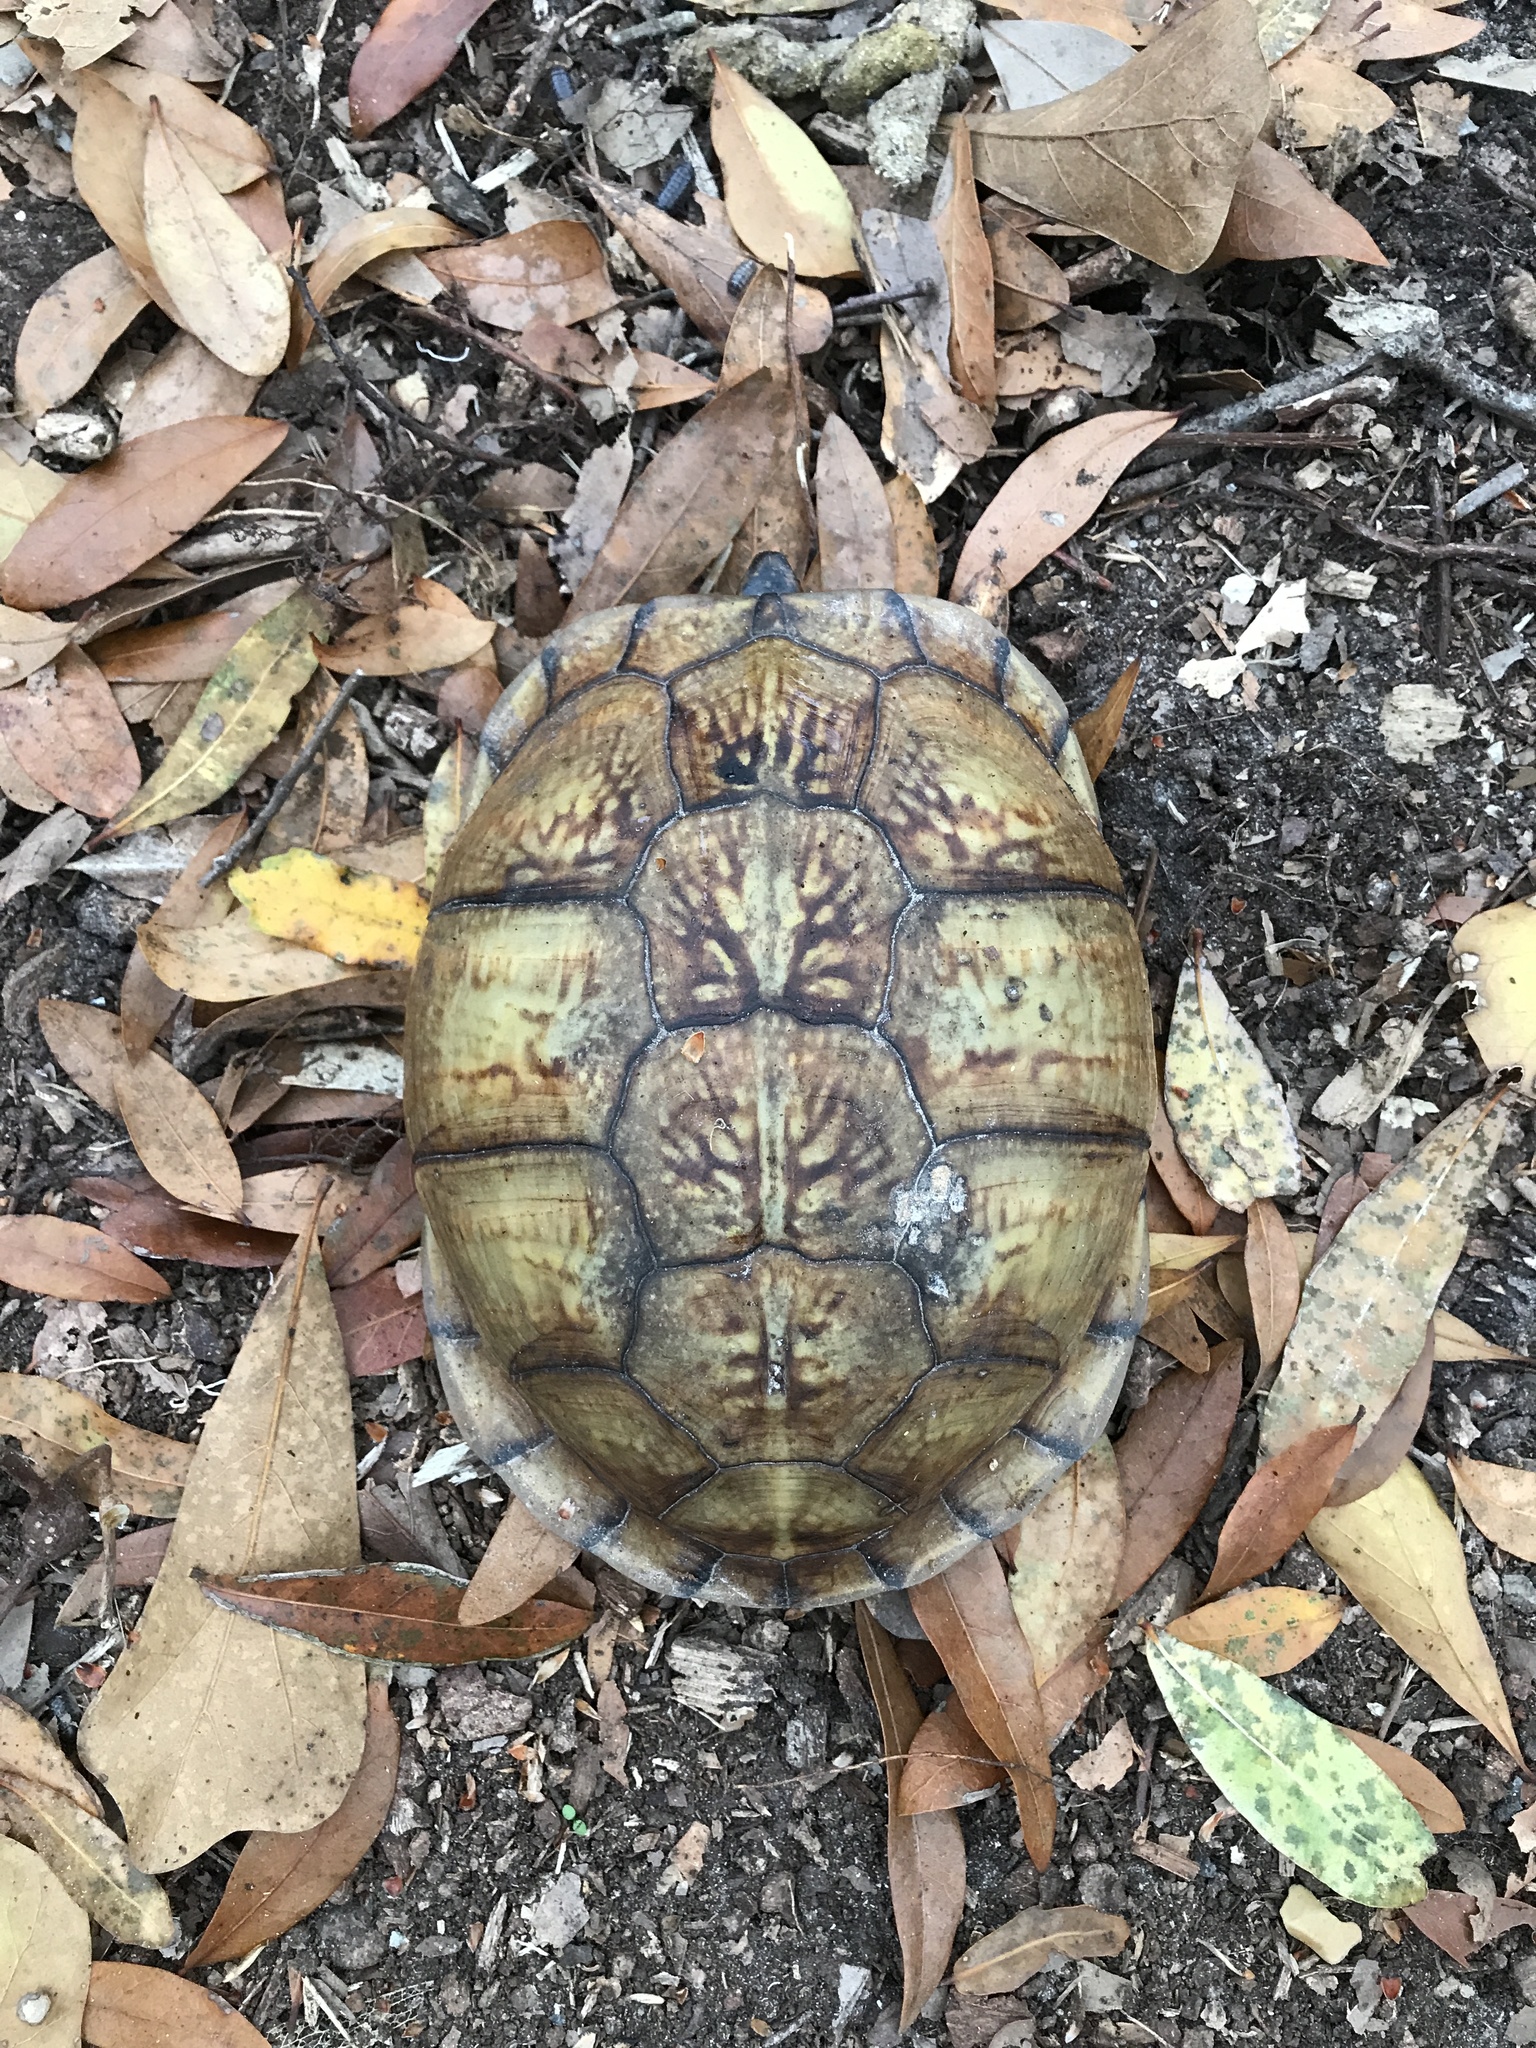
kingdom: Animalia
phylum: Chordata
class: Testudines
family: Emydidae
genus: Terrapene
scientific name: Terrapene carolina
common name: Common box turtle
